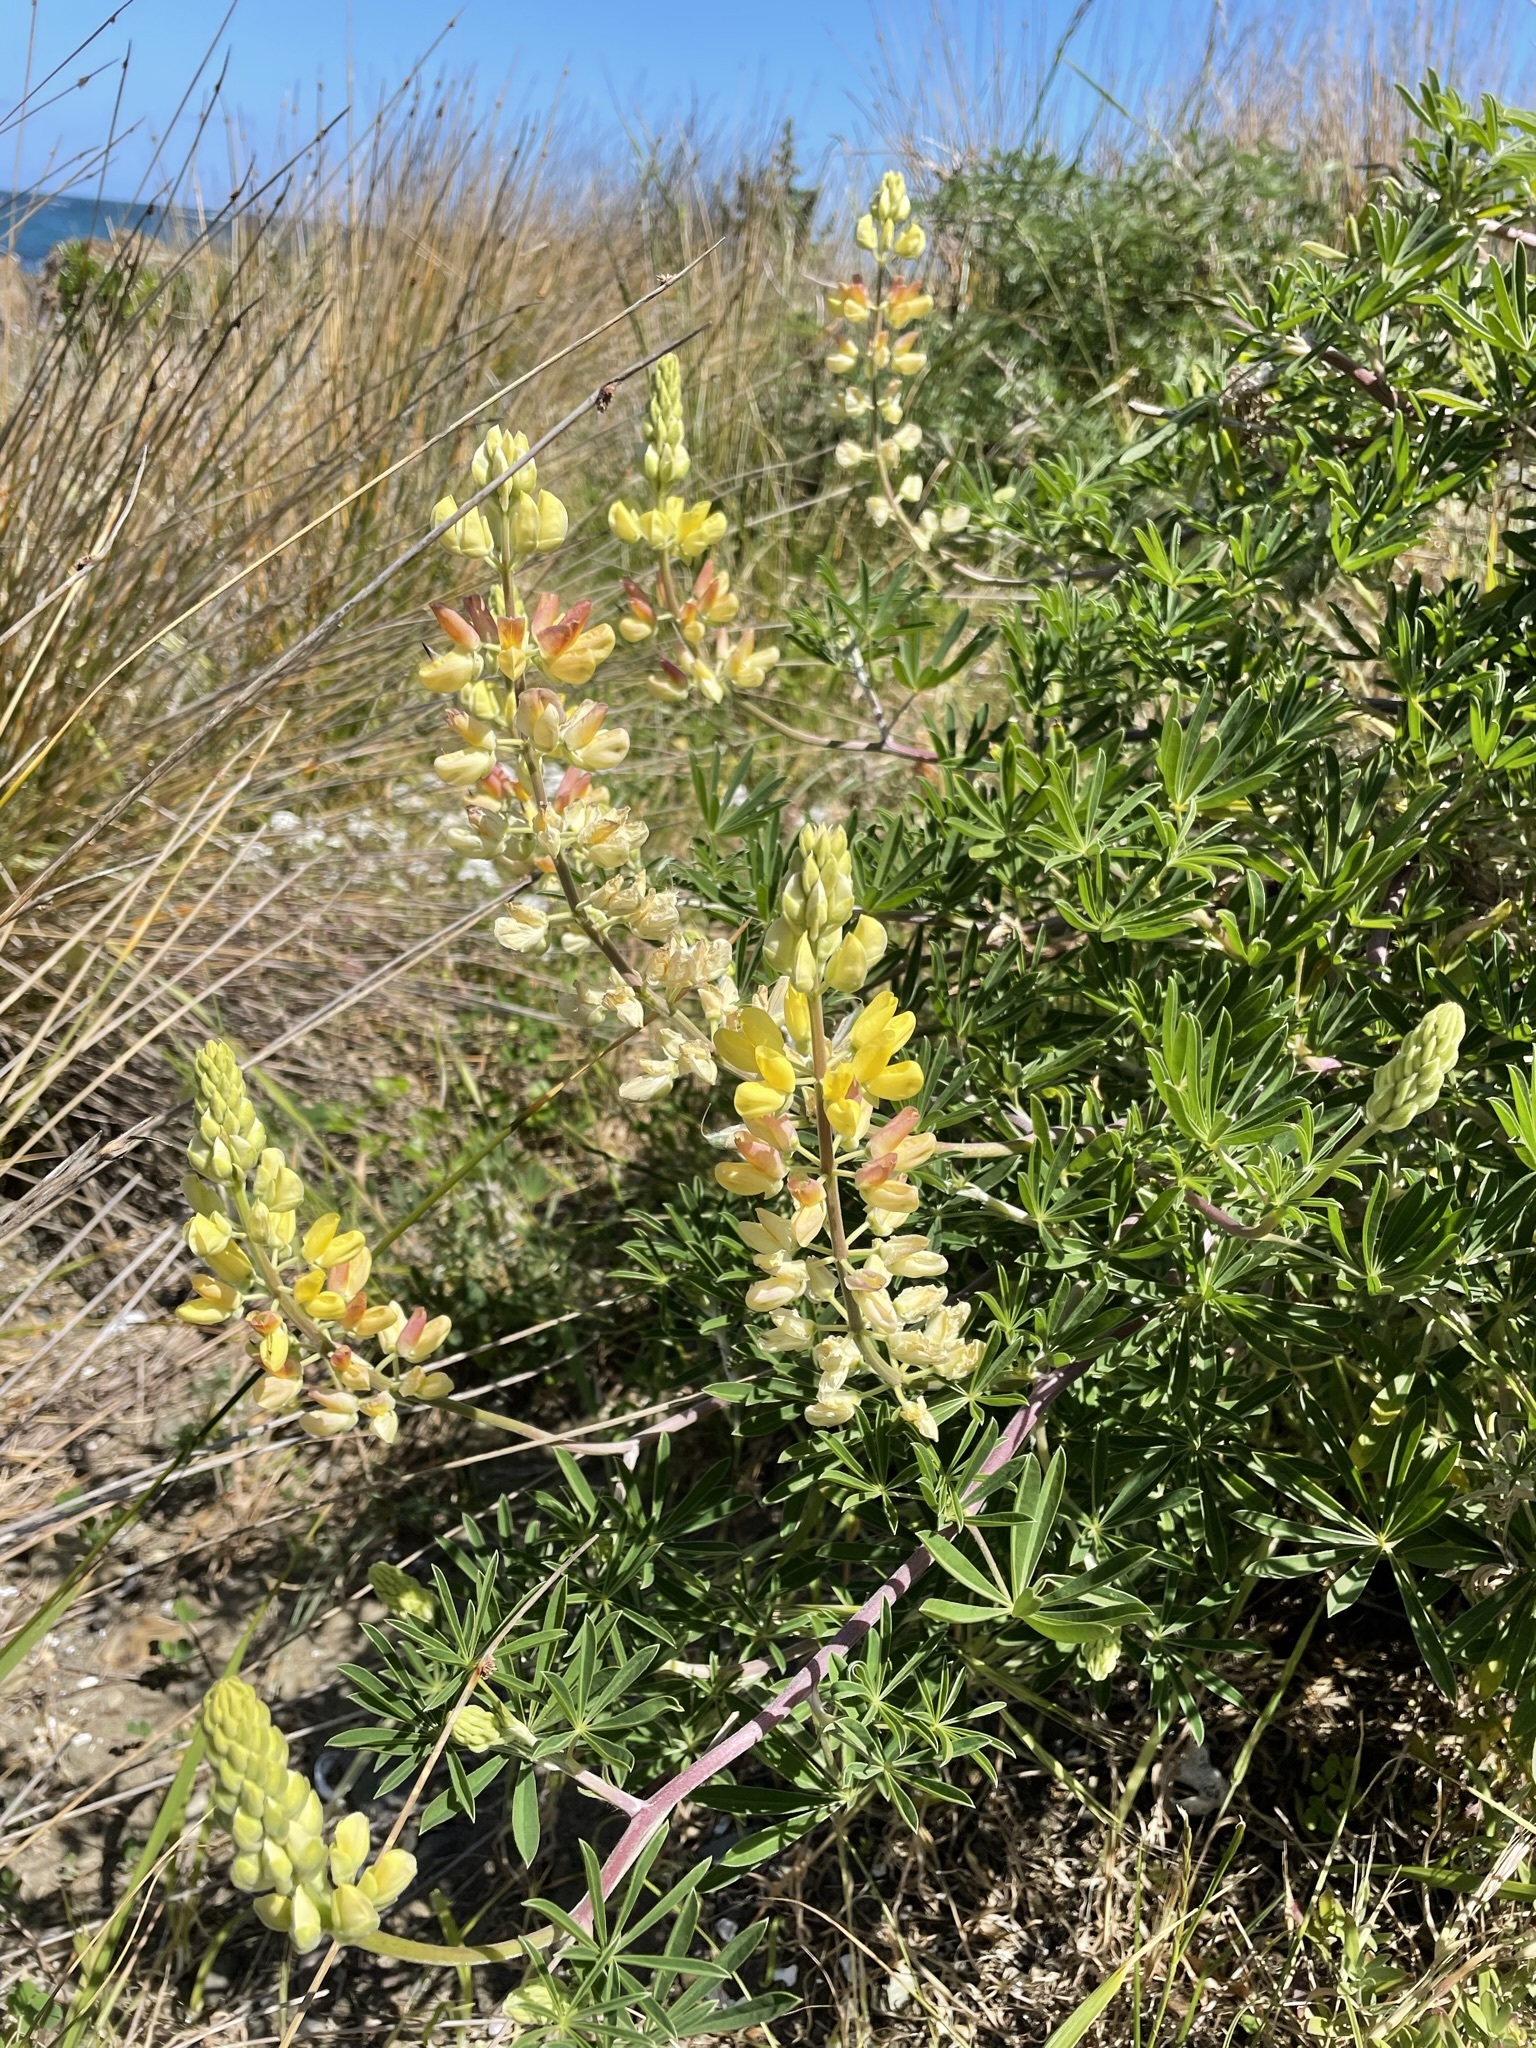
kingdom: Plantae
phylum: Tracheophyta
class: Magnoliopsida
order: Fabales
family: Fabaceae
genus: Lupinus
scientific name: Lupinus arboreus
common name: Yellow bush lupine
